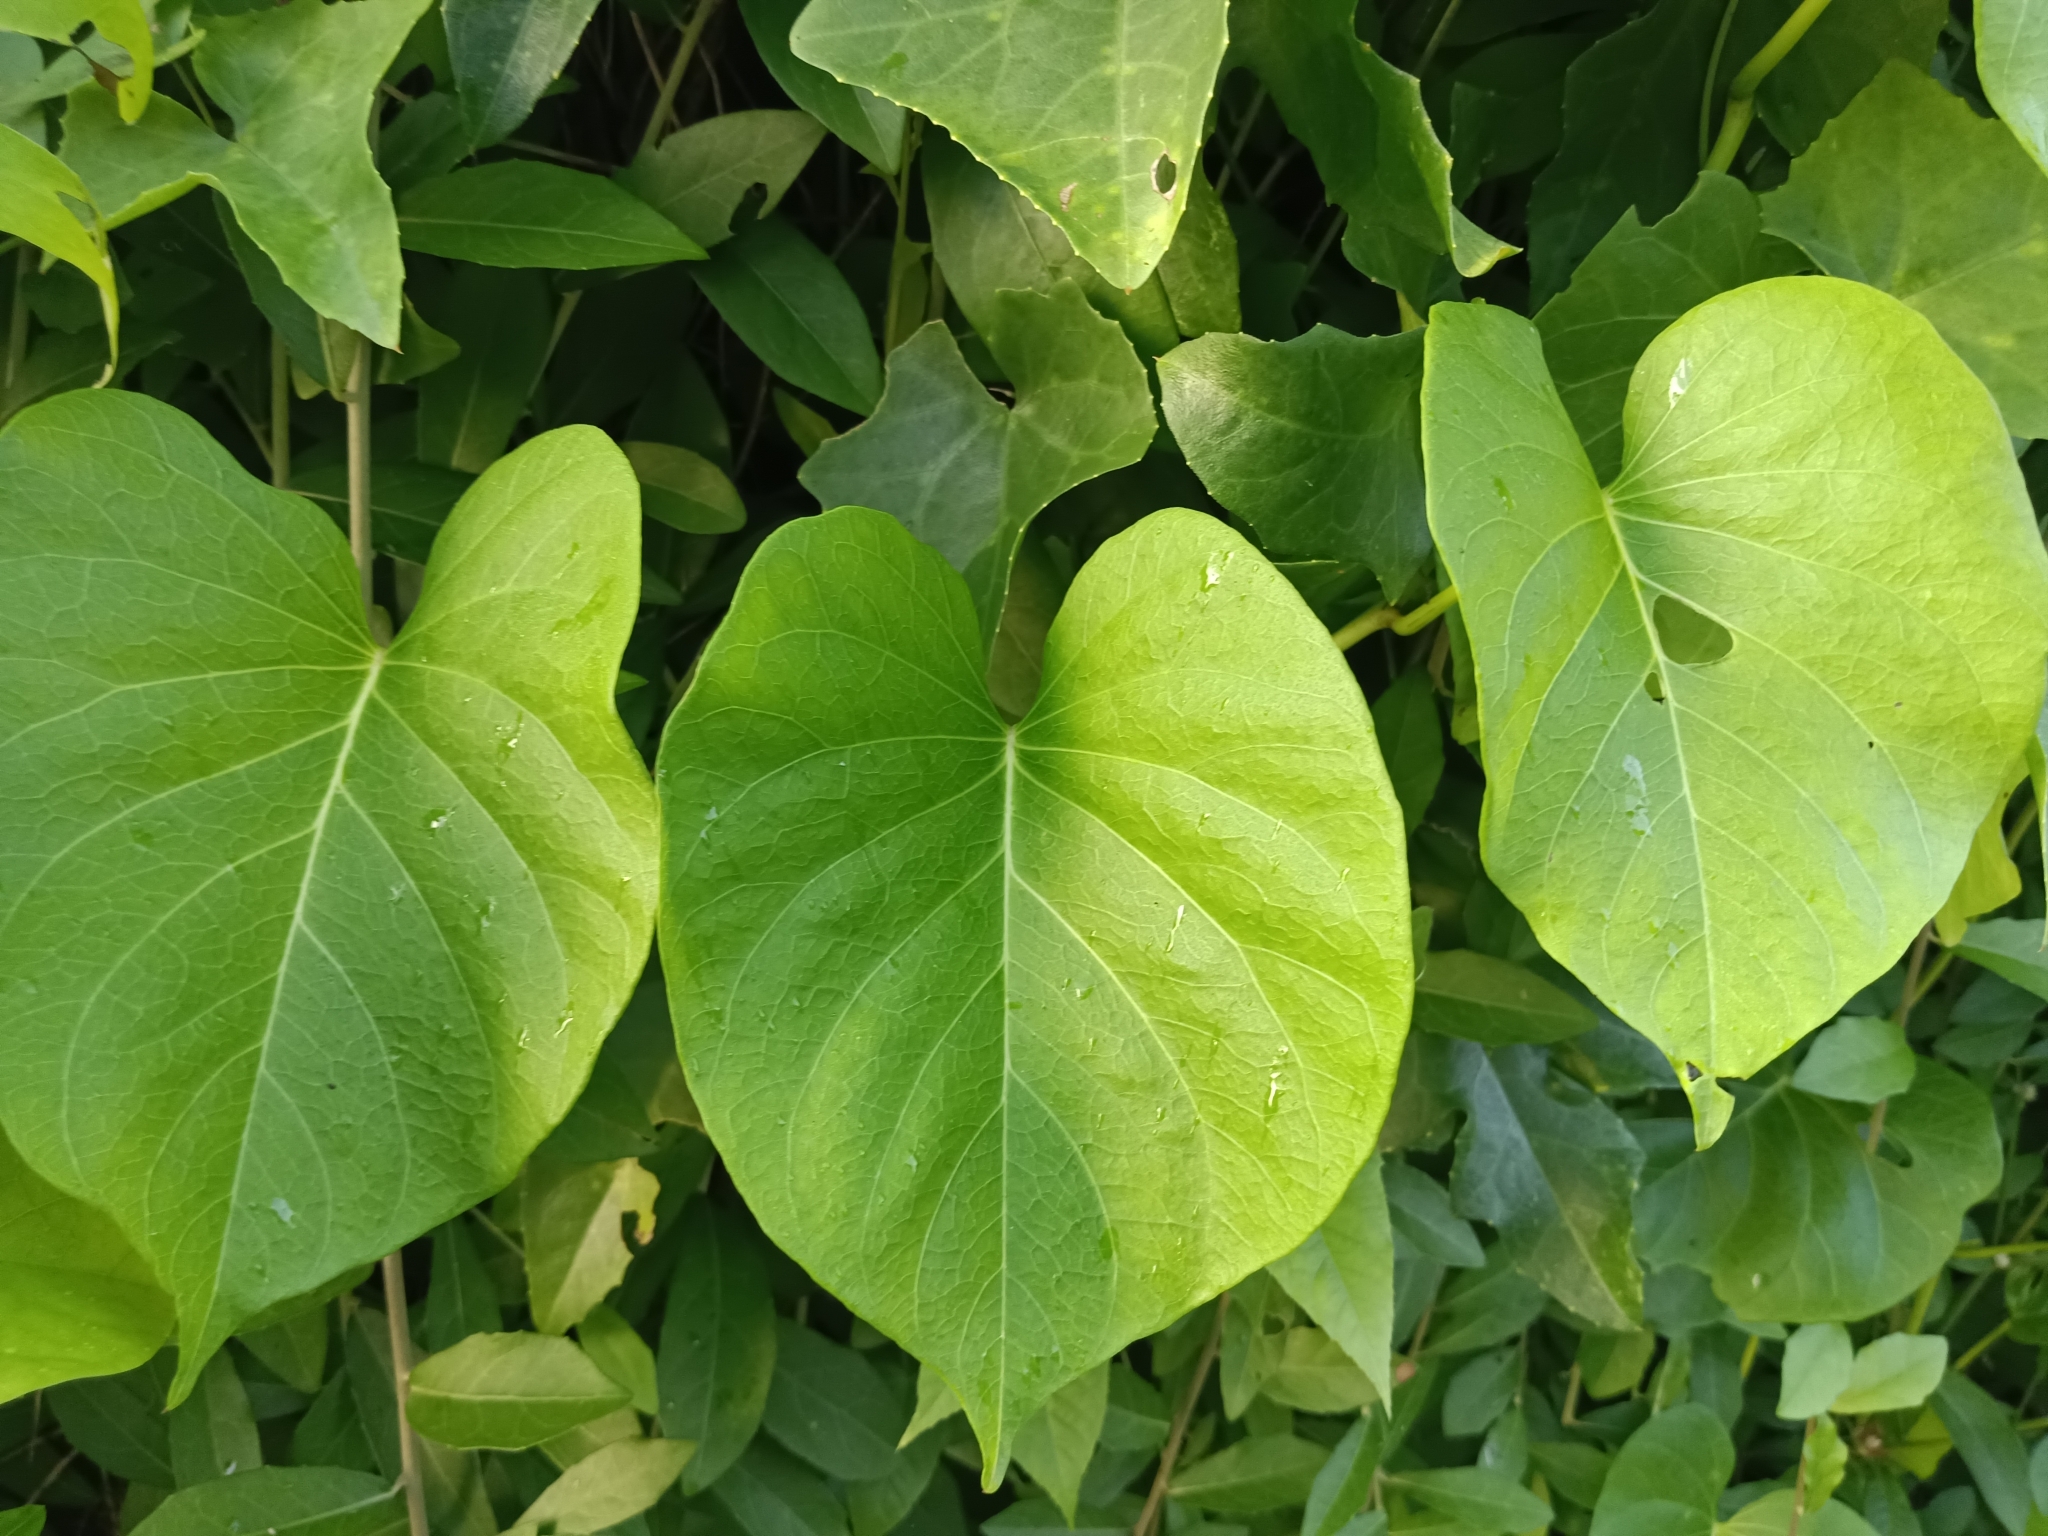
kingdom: Plantae
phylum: Tracheophyta
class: Magnoliopsida
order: Solanales
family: Convolvulaceae
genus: Ipomoea
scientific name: Ipomoea violacea
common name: Beach moonflower
